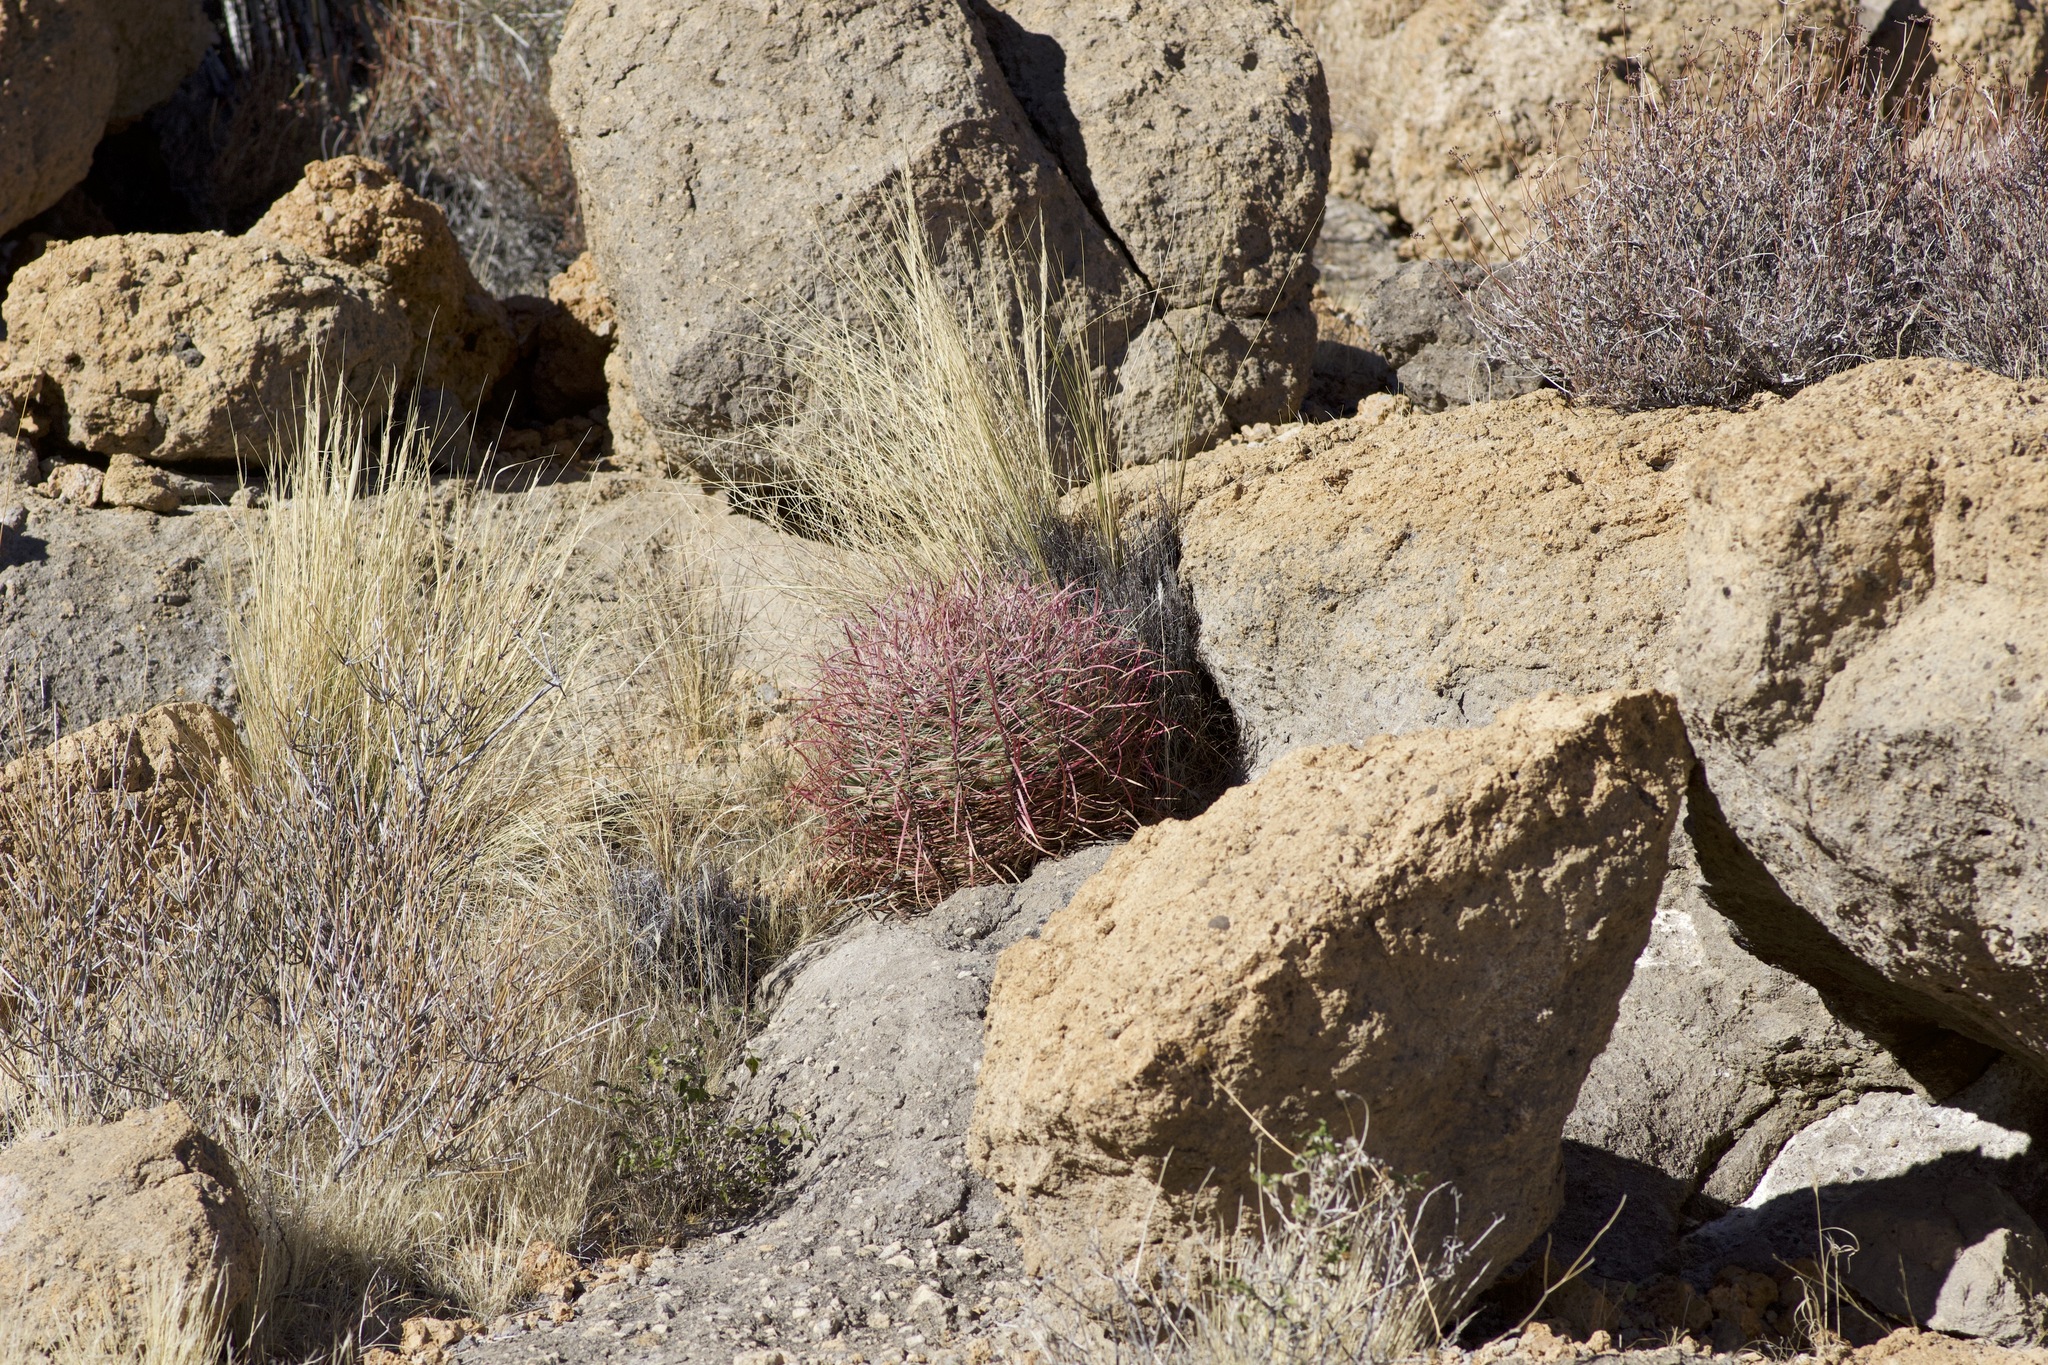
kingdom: Plantae
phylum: Tracheophyta
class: Magnoliopsida
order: Caryophyllales
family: Cactaceae
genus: Ferocactus
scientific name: Ferocactus cylindraceus
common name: California barrel cactus
